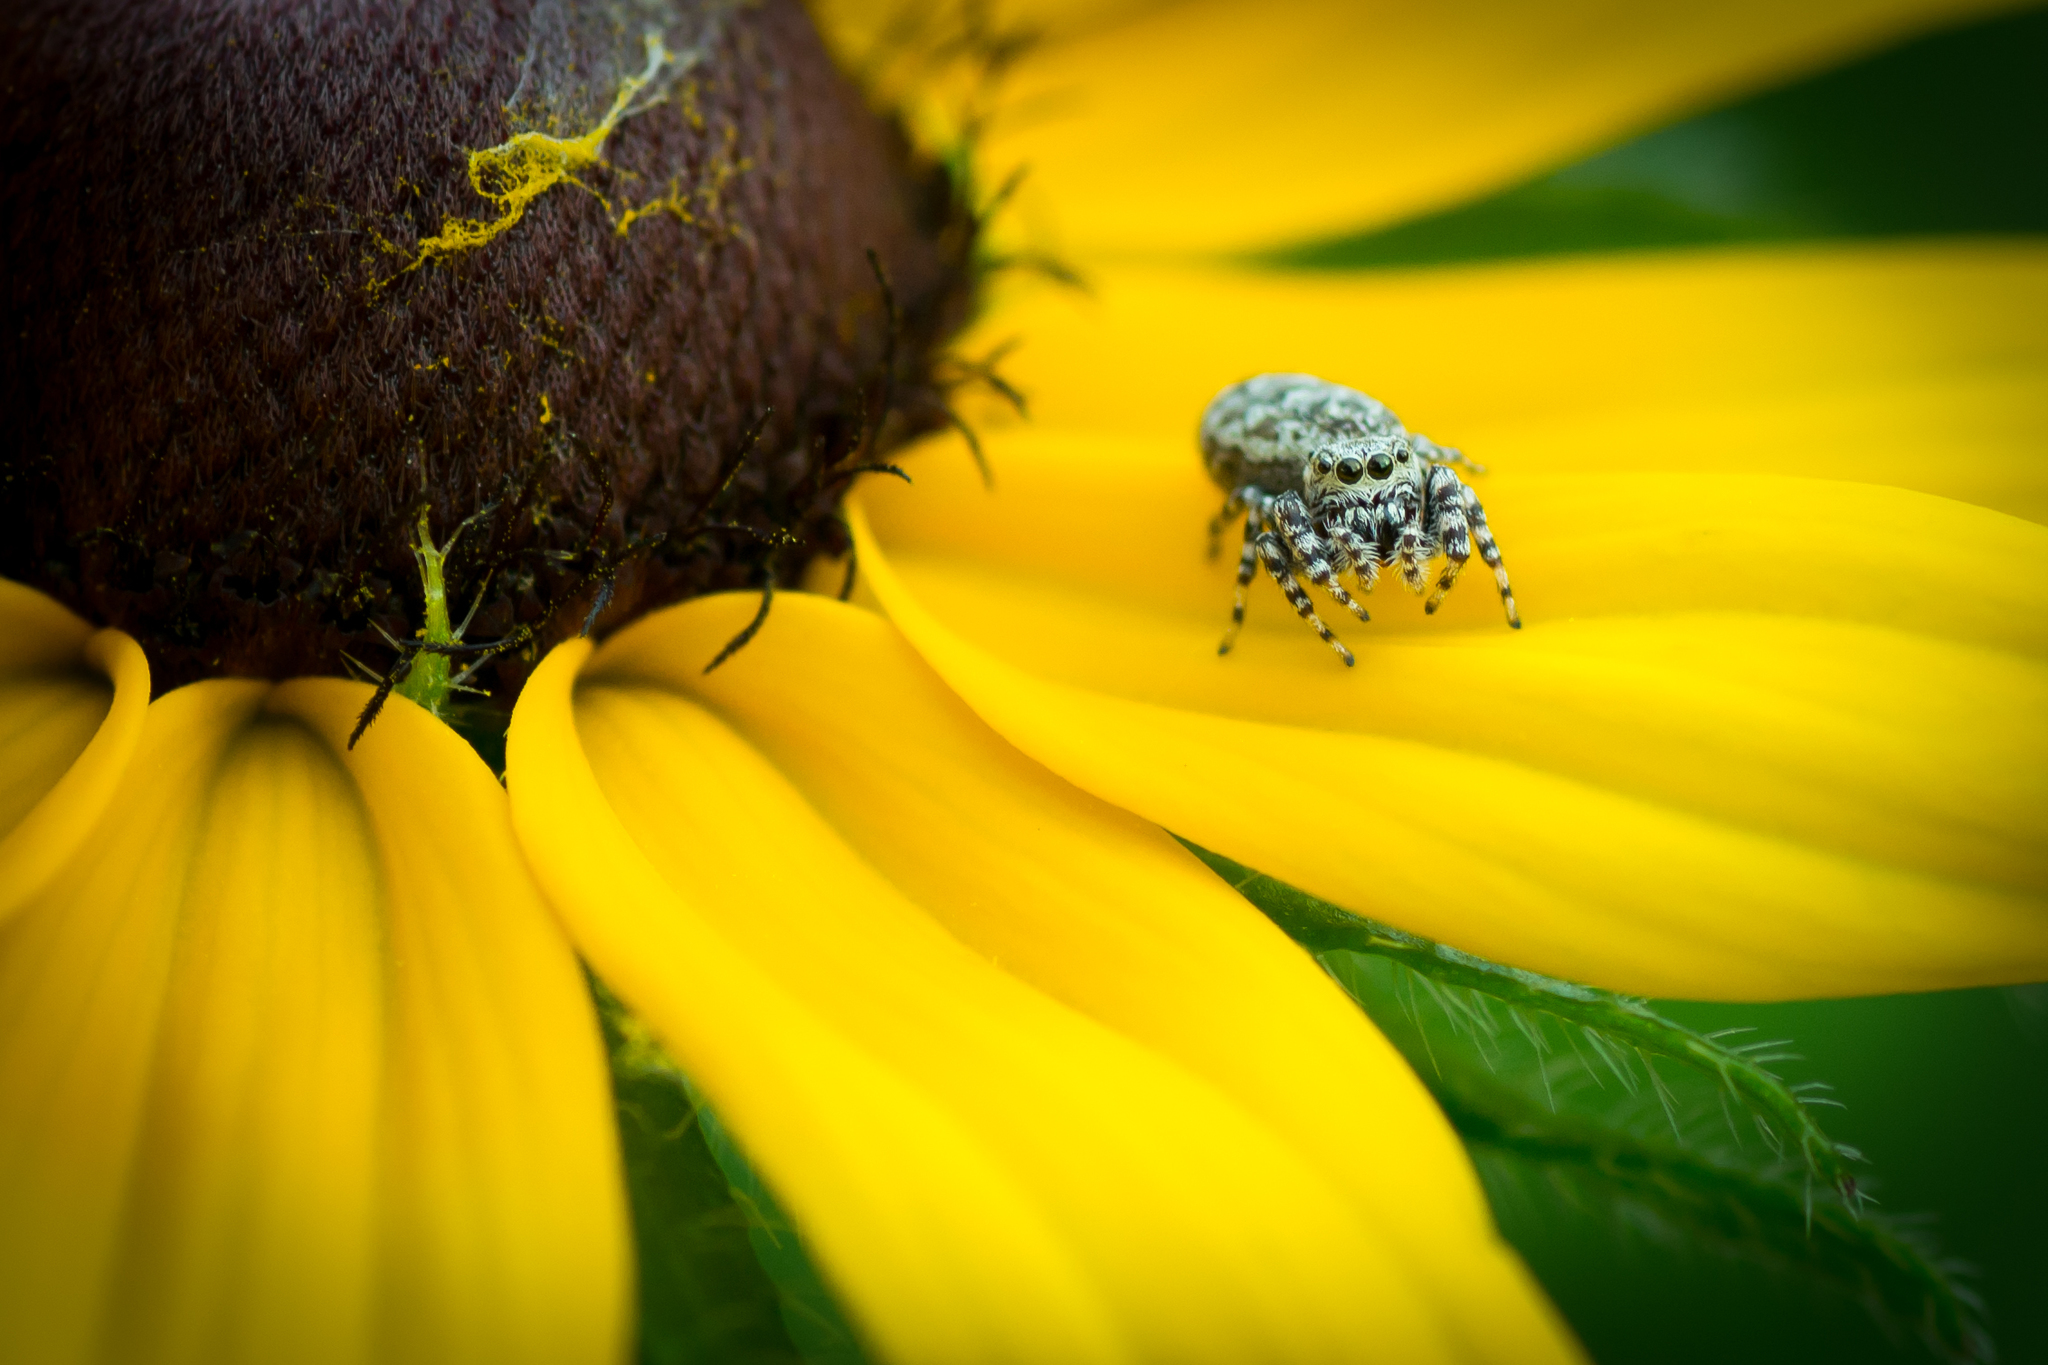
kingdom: Animalia
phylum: Arthropoda
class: Arachnida
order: Araneae
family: Salticidae
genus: Pelegrina
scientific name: Pelegrina galathea
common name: Jumping spiders
